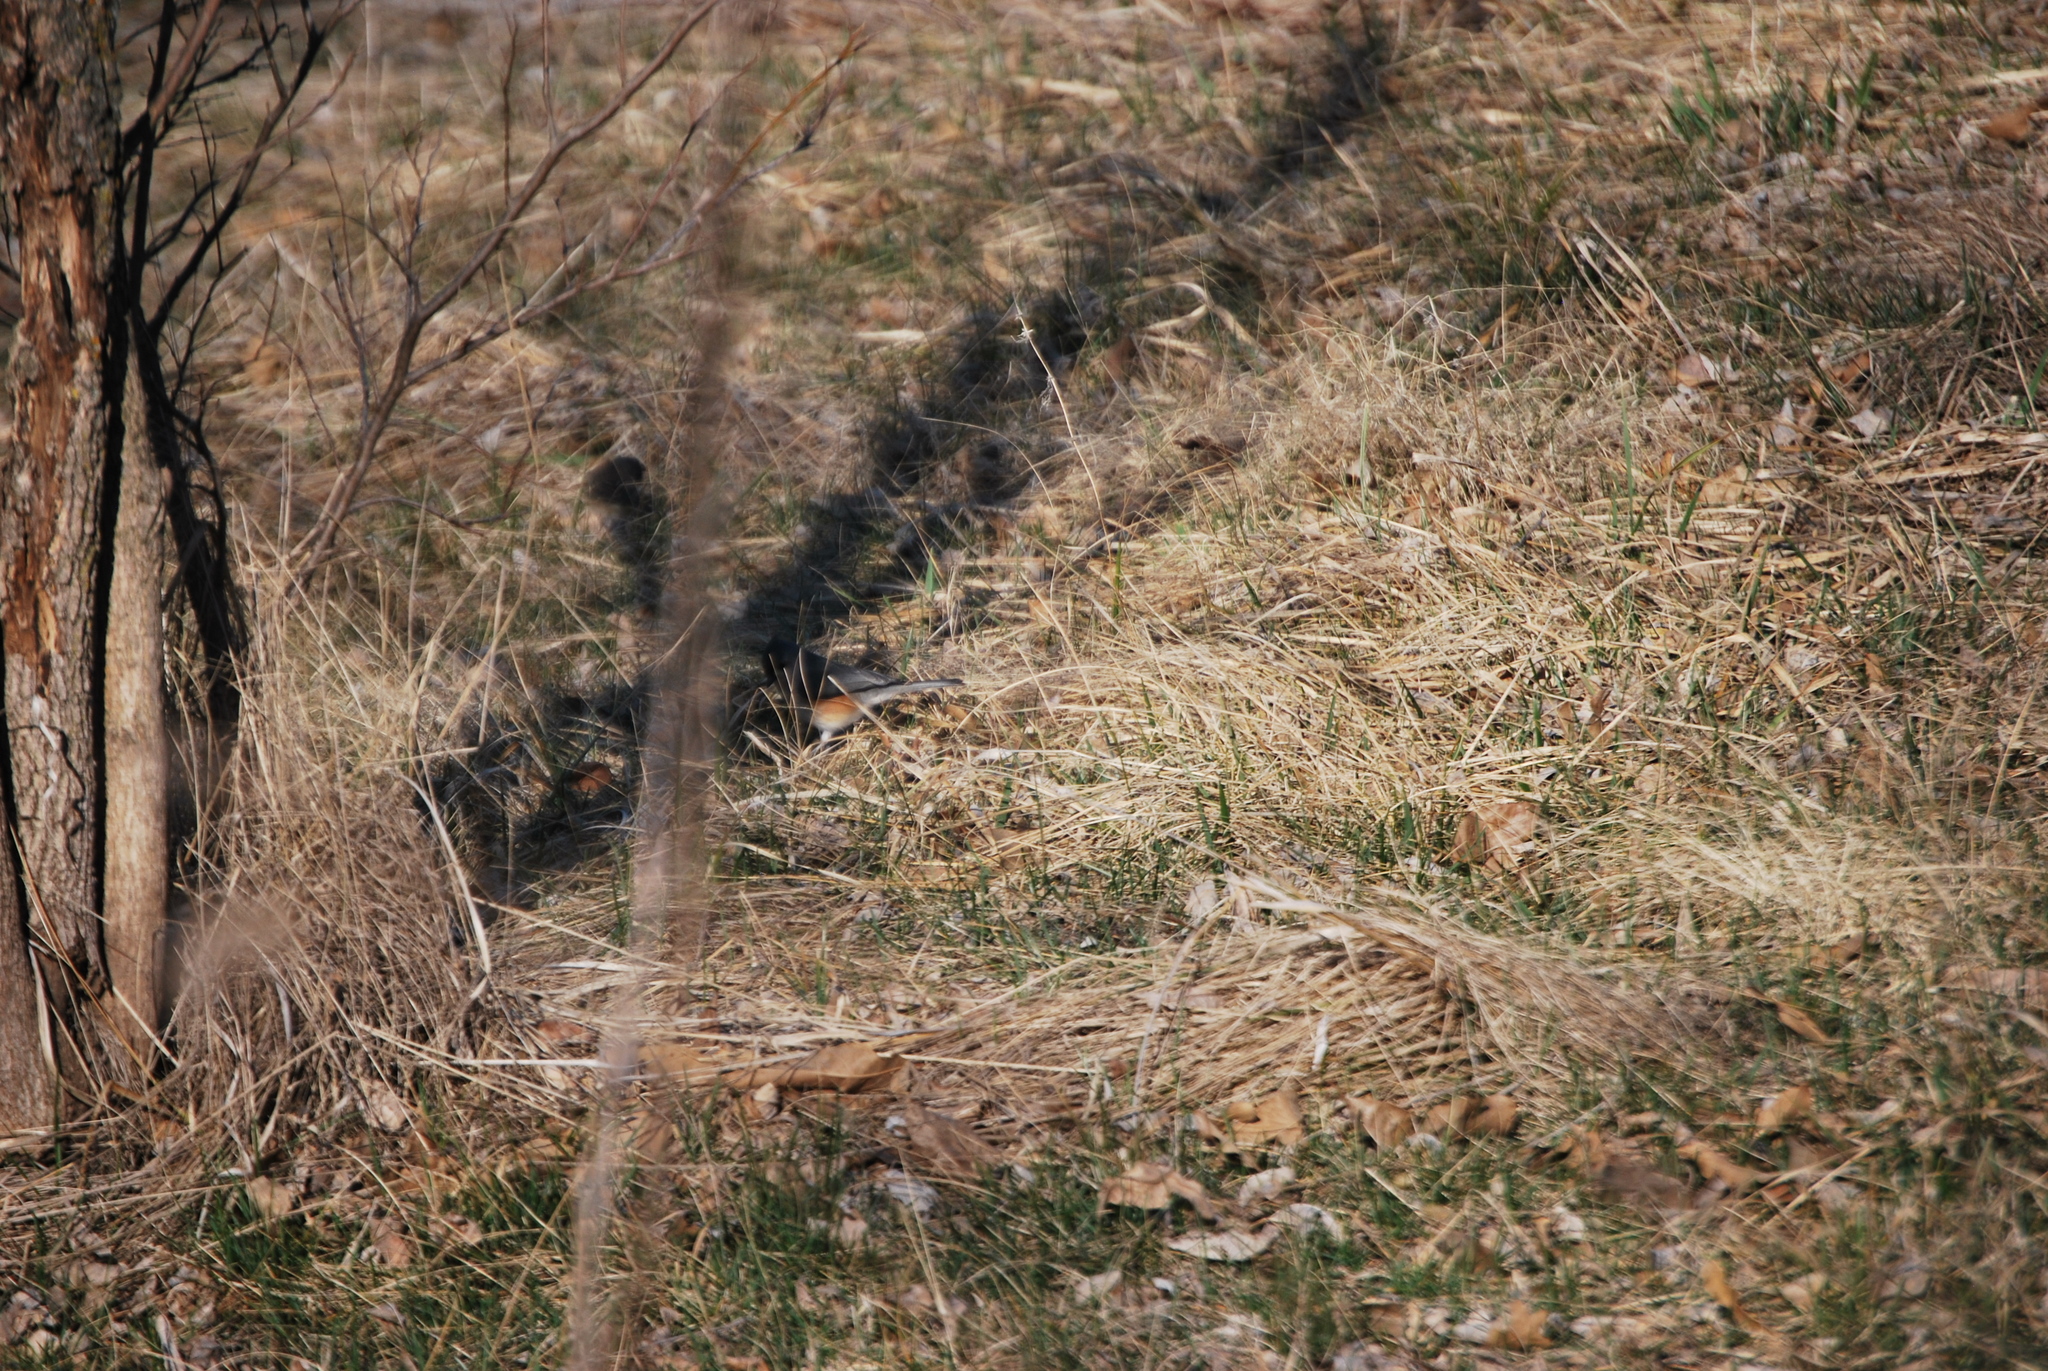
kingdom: Animalia
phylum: Chordata
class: Aves
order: Passeriformes
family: Paridae
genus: Baeolophus
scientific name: Baeolophus bicolor
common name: Tufted titmouse
